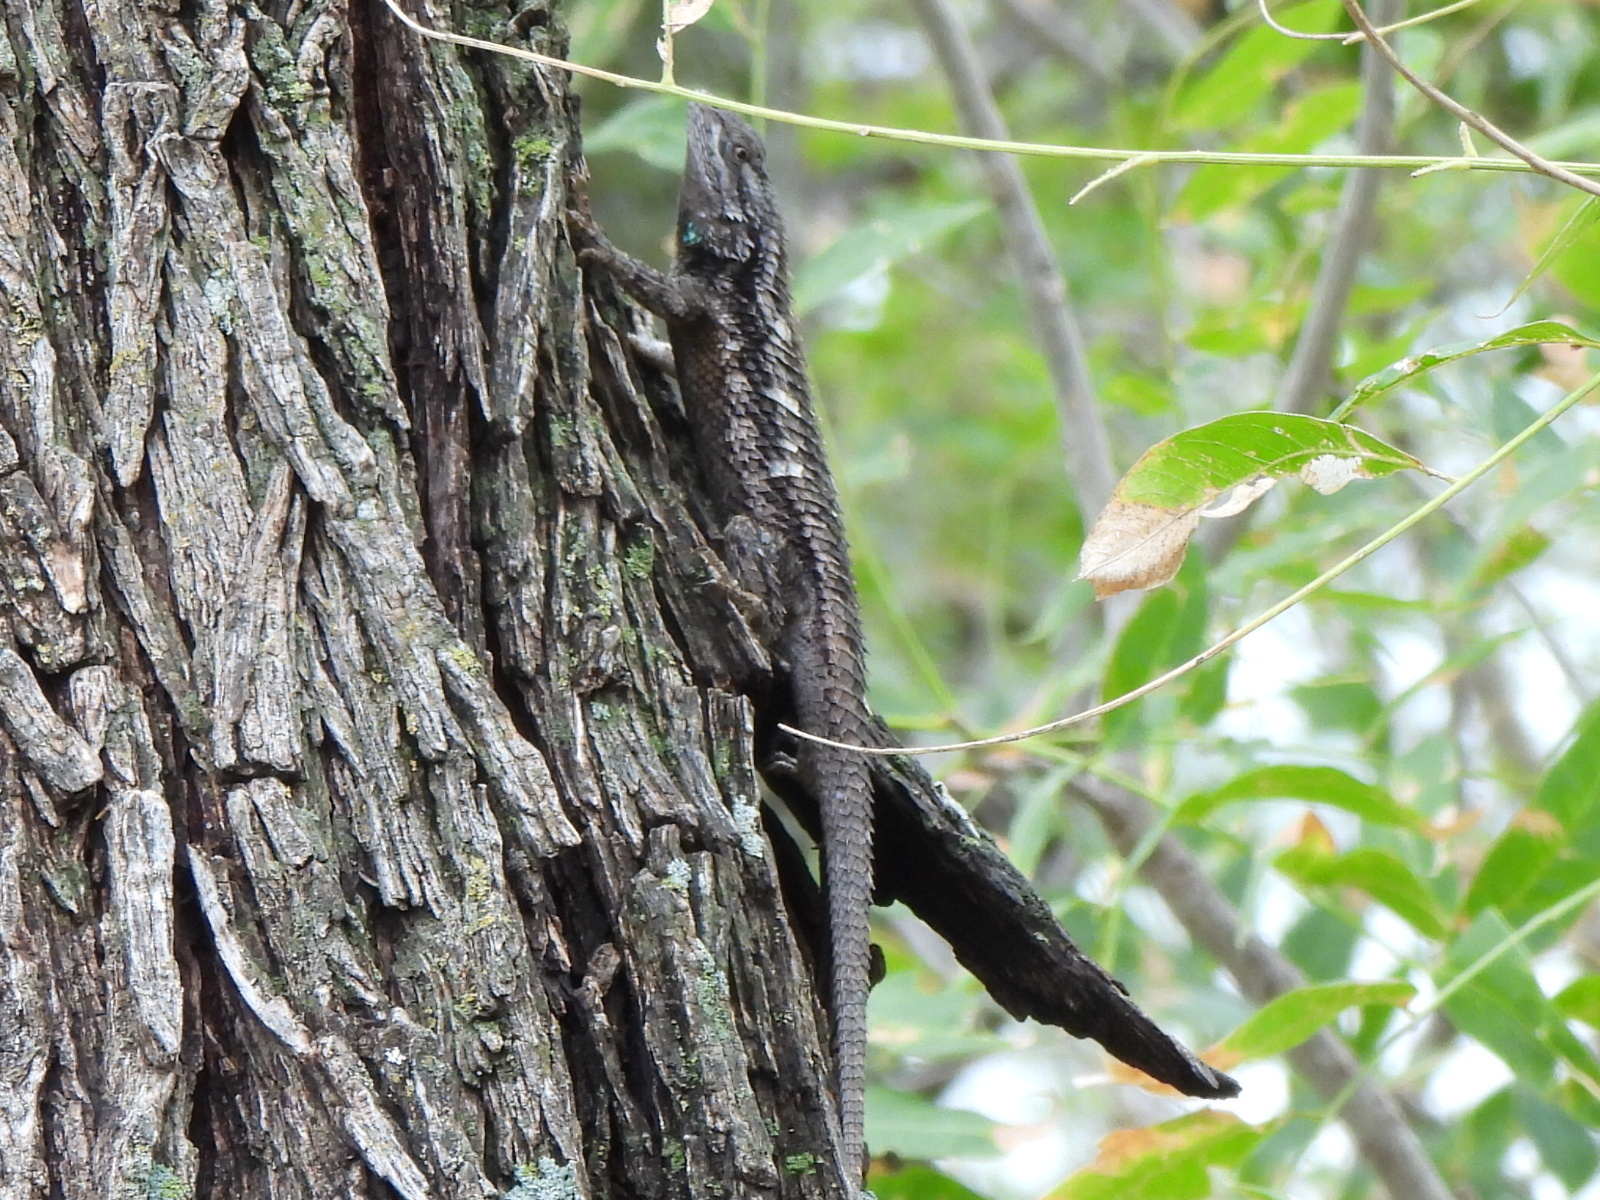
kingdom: Animalia
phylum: Chordata
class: Squamata
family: Phrynosomatidae
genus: Sceloporus
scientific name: Sceloporus olivaceus
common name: Texas spiny lizard
